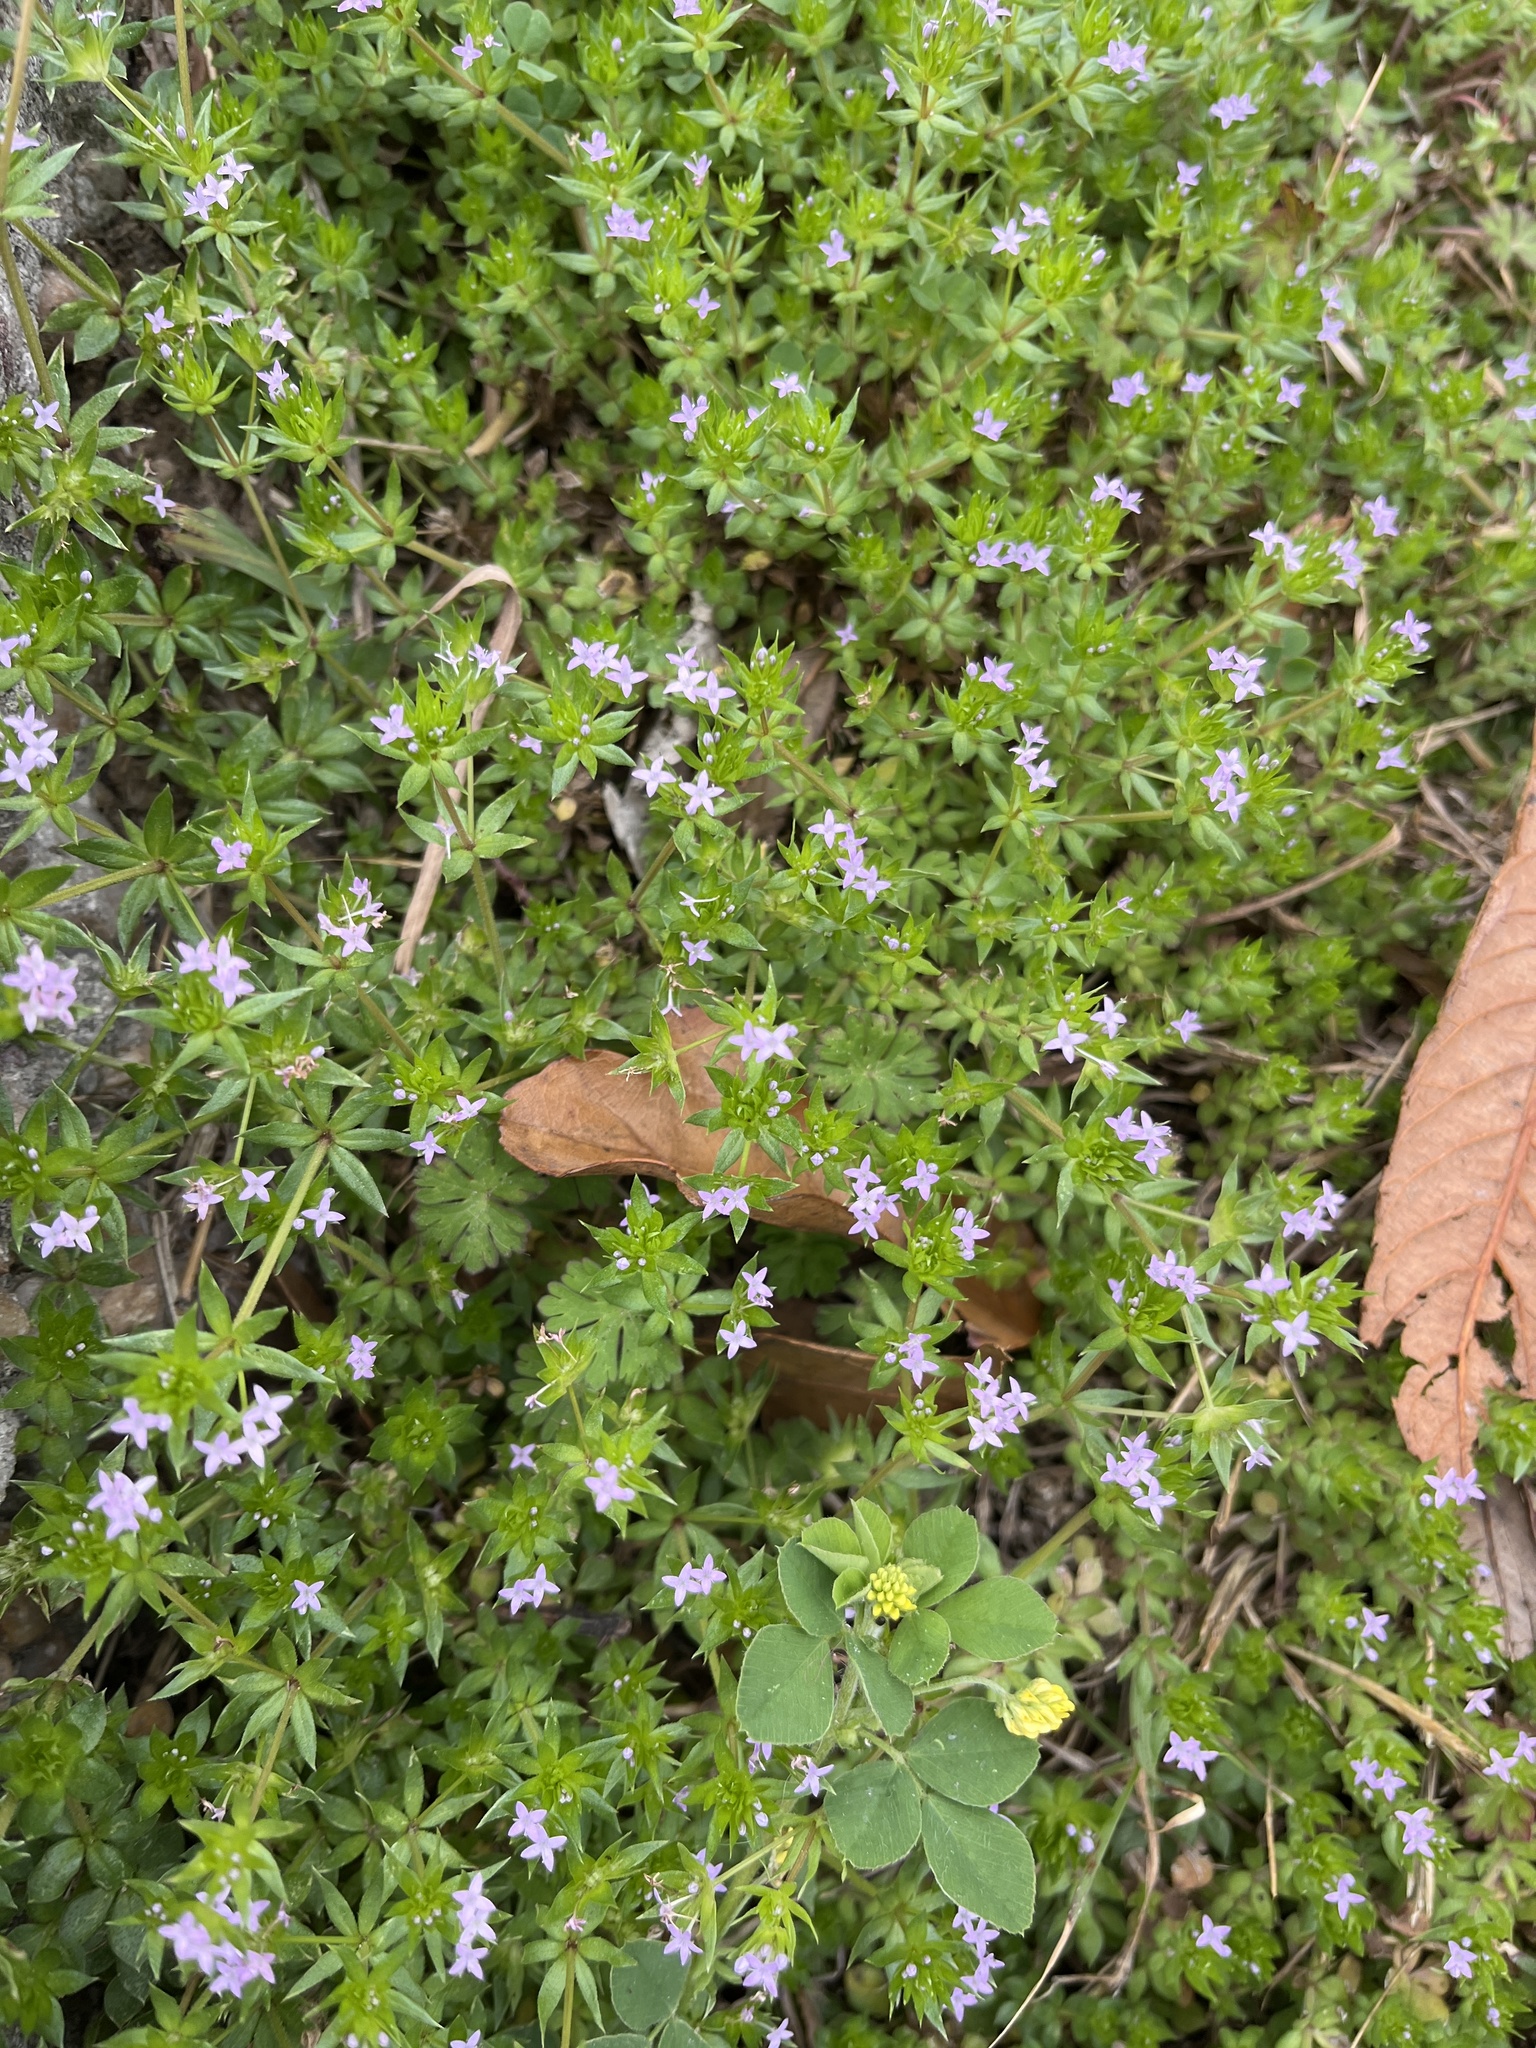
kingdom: Plantae
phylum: Tracheophyta
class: Magnoliopsida
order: Gentianales
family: Rubiaceae
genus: Sherardia
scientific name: Sherardia arvensis
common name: Field madder
